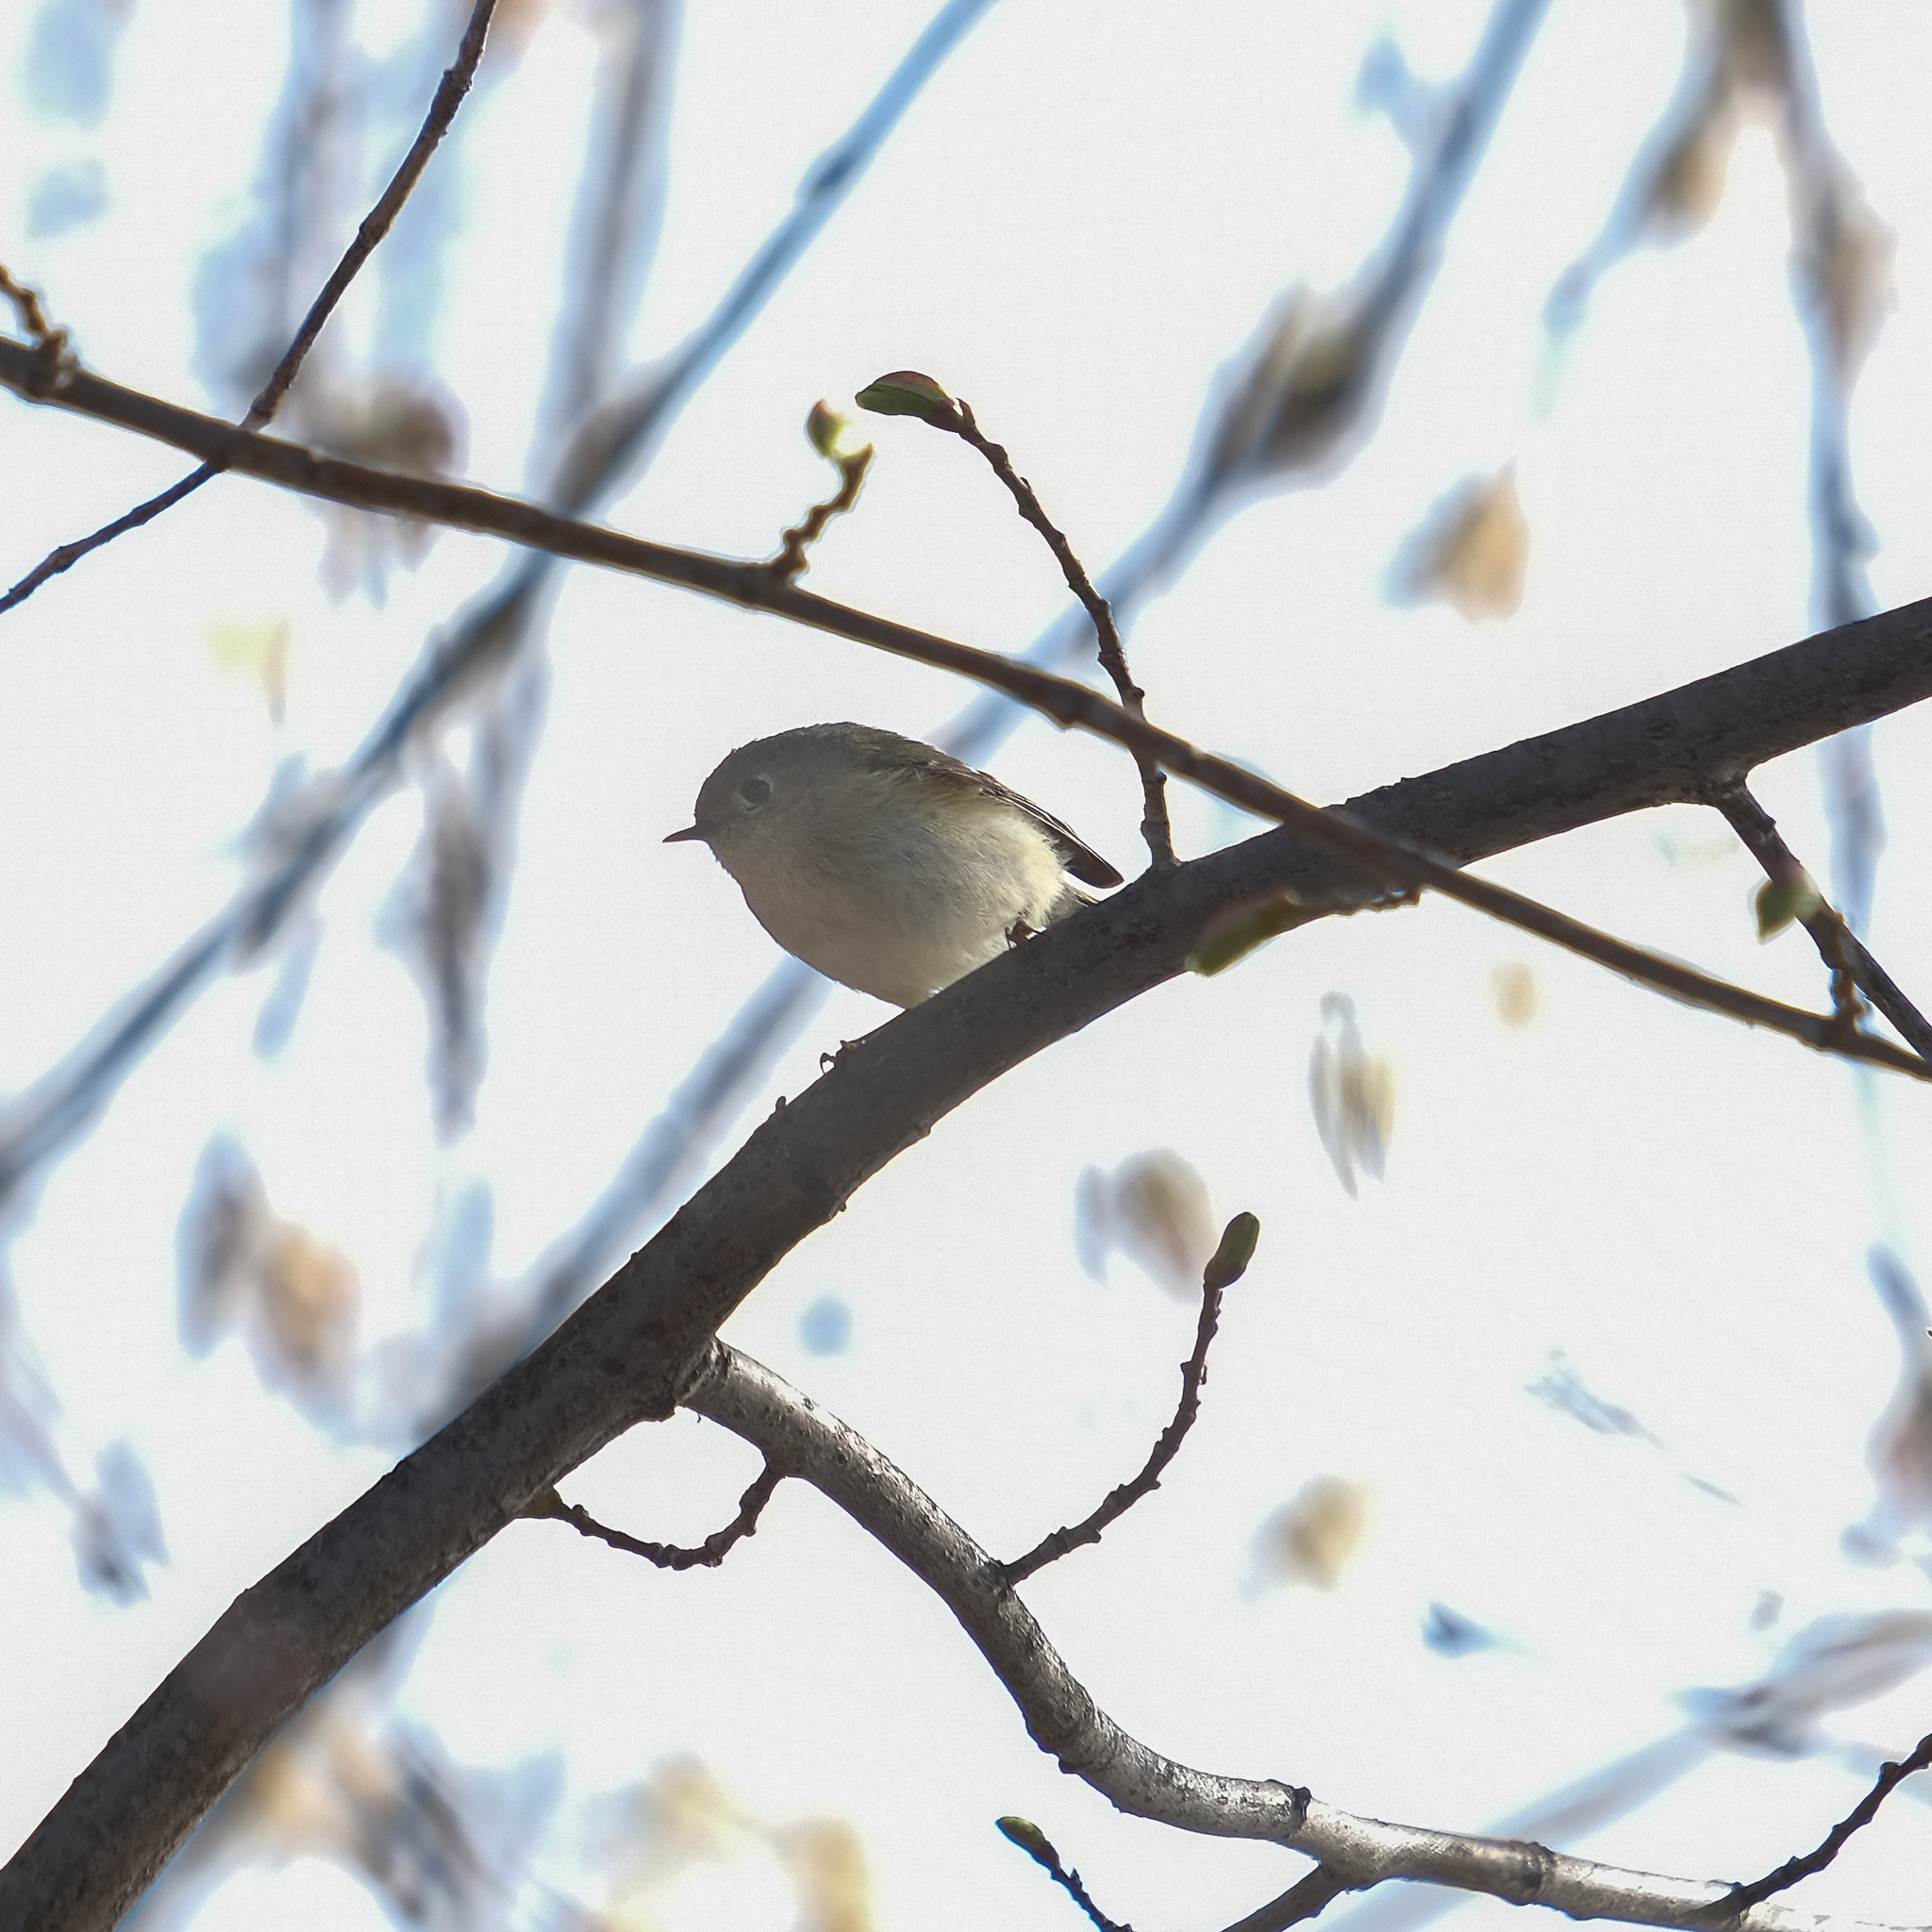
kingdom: Animalia
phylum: Chordata
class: Aves
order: Passeriformes
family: Regulidae
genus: Regulus
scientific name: Regulus calendula
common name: Ruby-crowned kinglet
